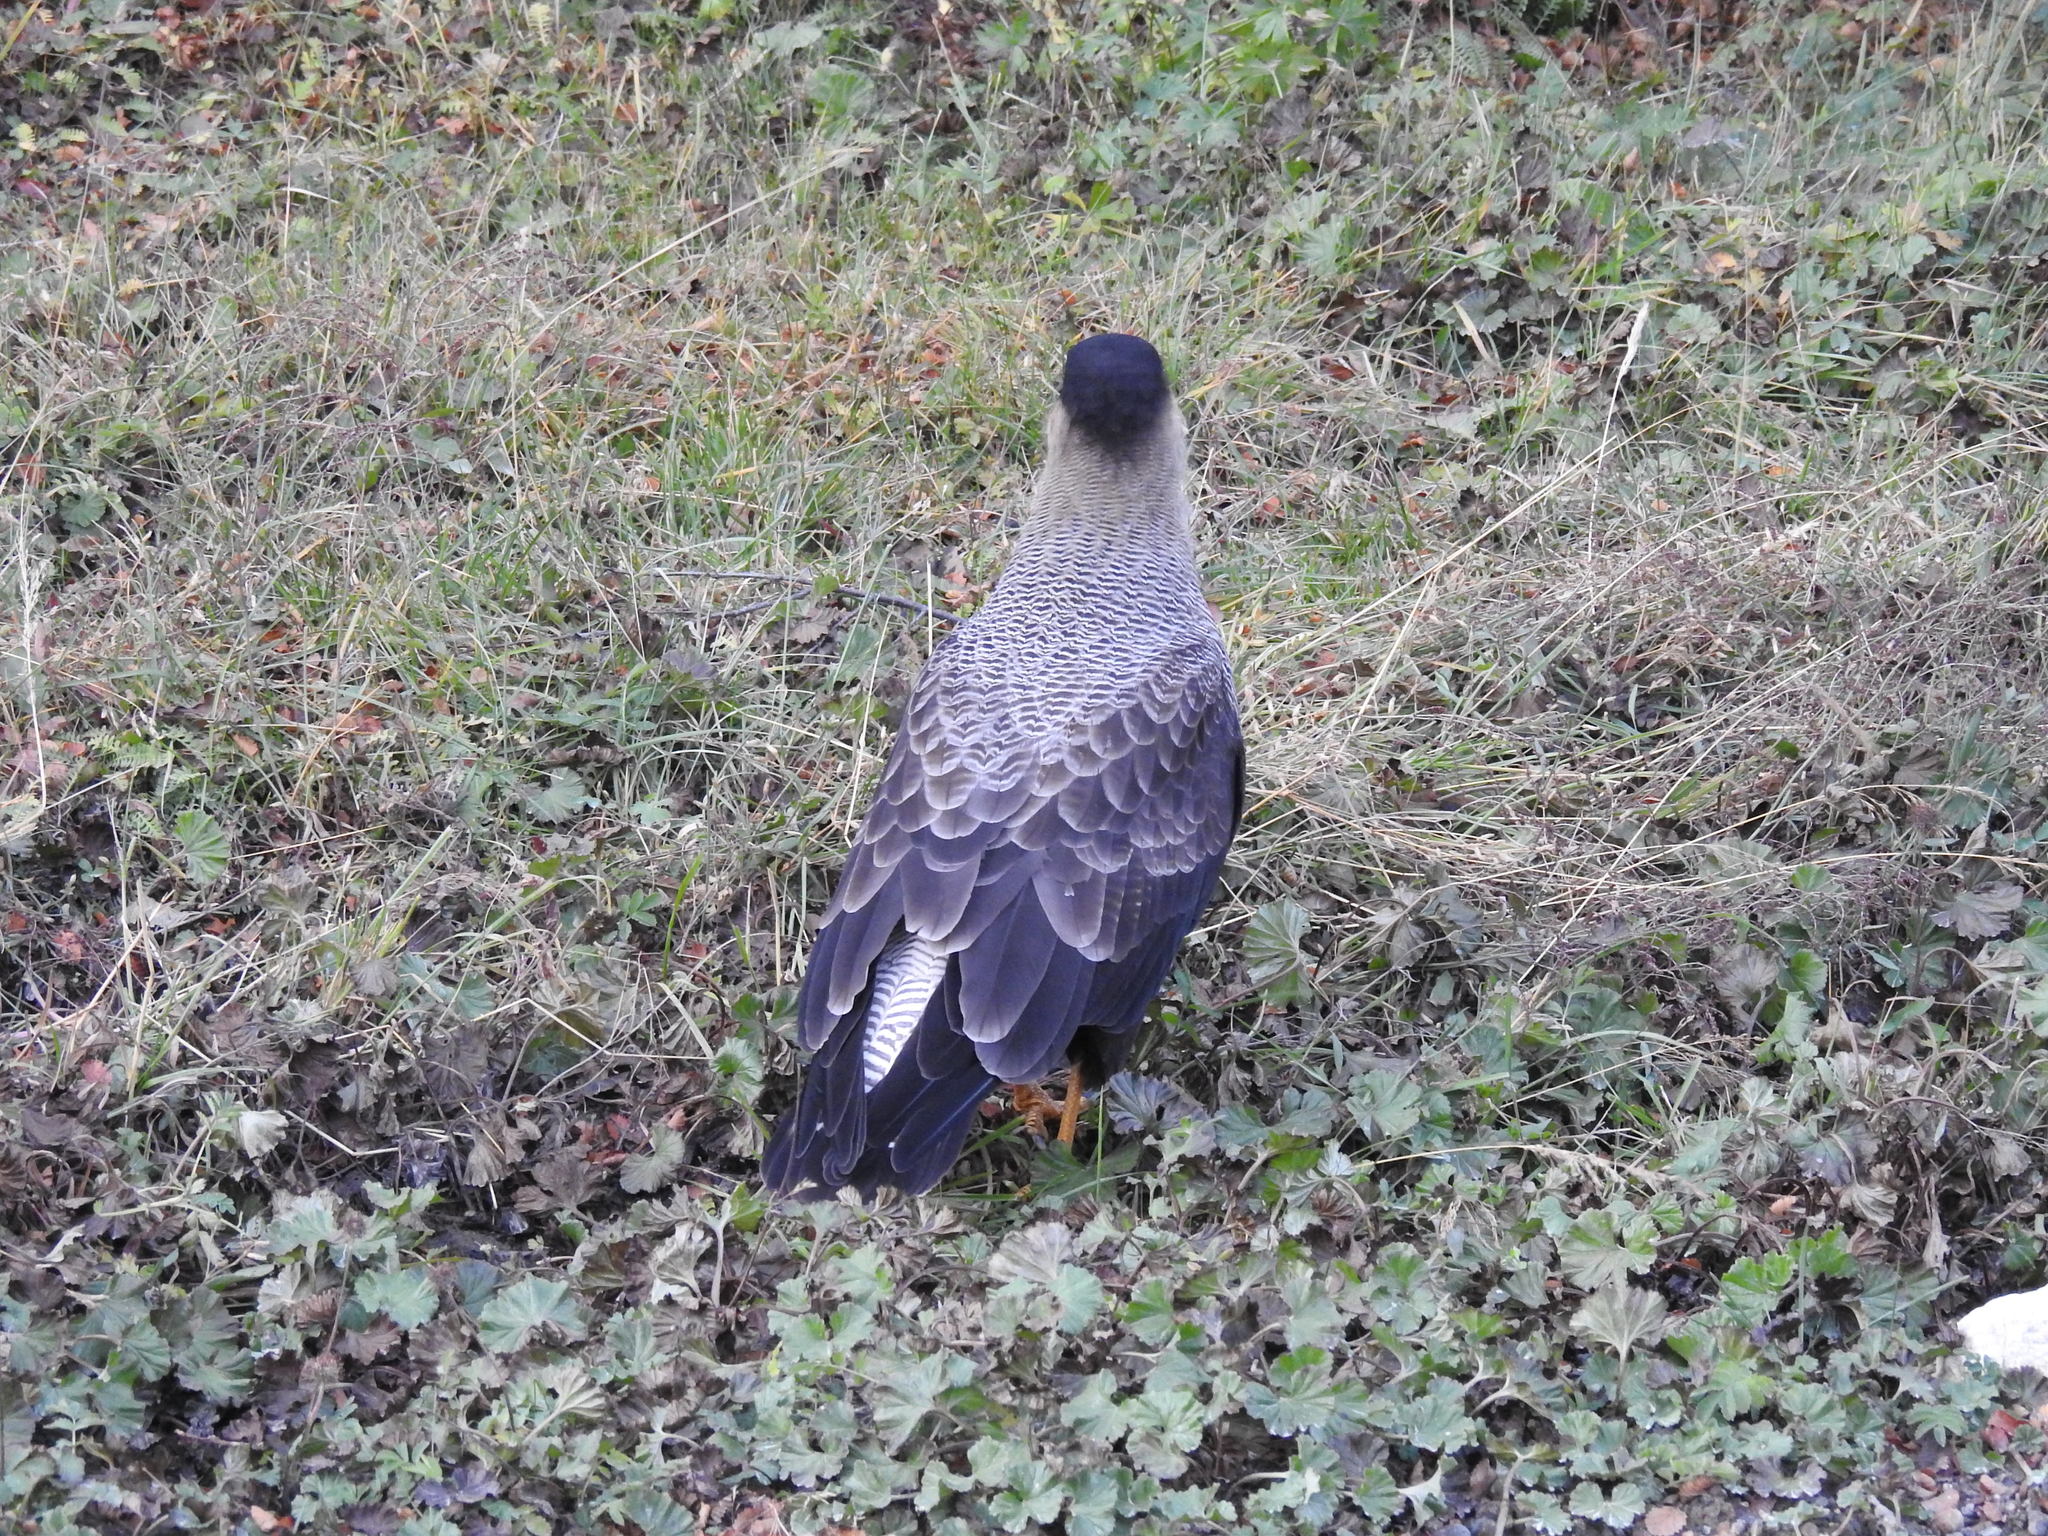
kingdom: Animalia
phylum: Chordata
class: Aves
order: Falconiformes
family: Falconidae
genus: Caracara
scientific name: Caracara plancus
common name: Southern caracara
